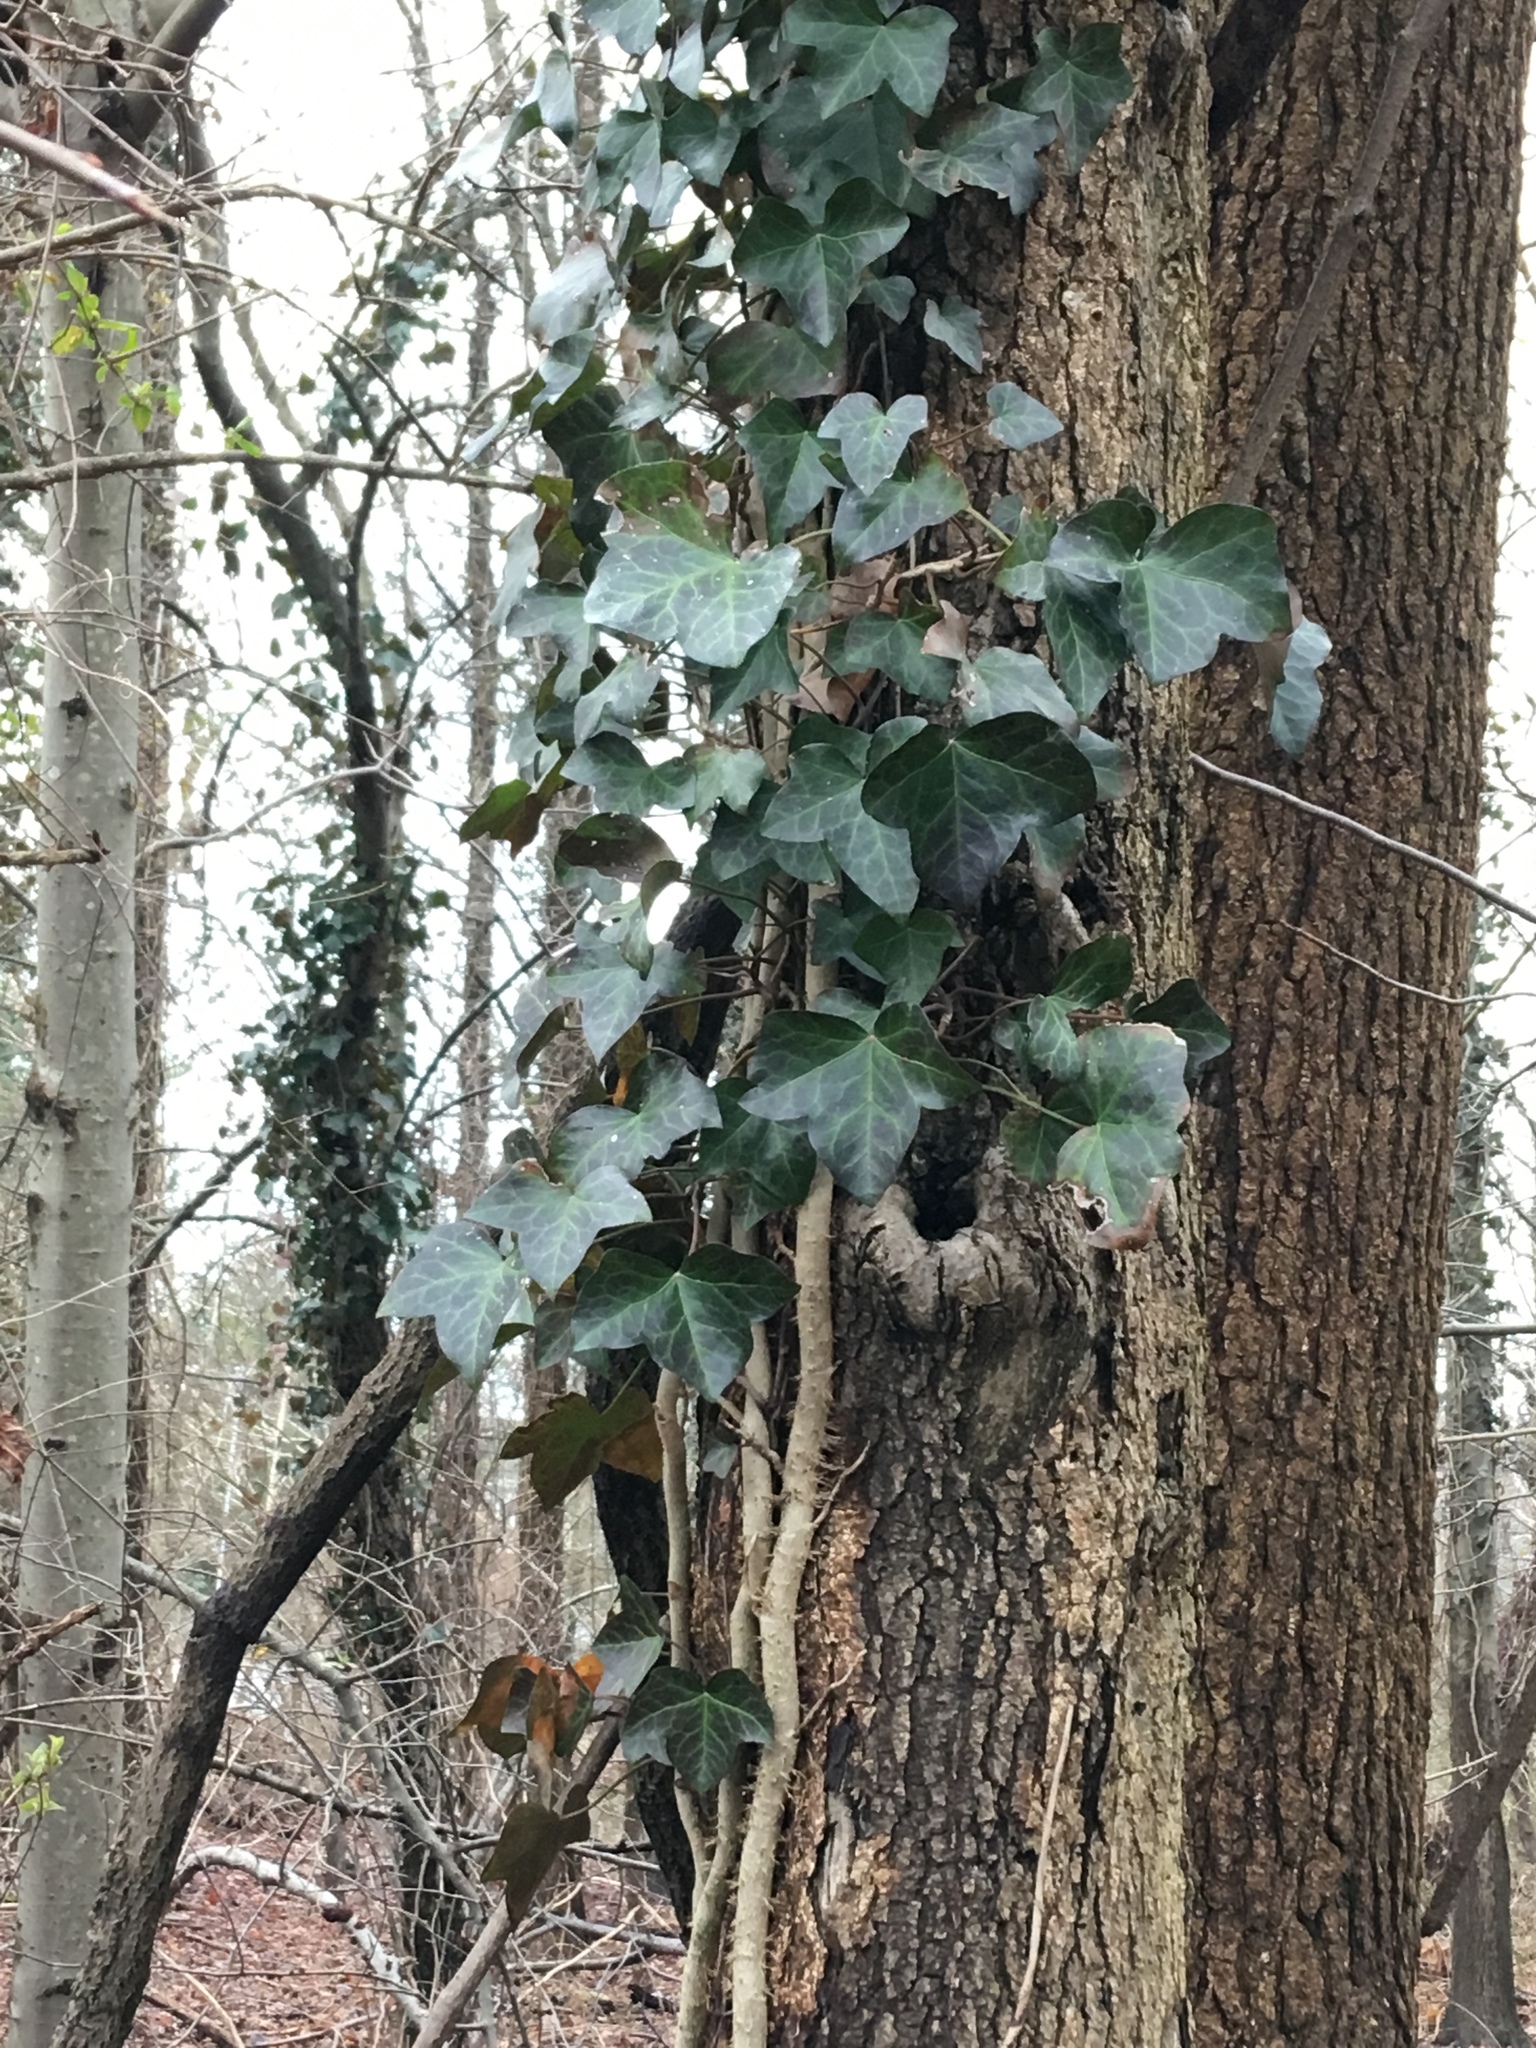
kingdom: Plantae
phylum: Tracheophyta
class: Magnoliopsida
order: Apiales
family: Araliaceae
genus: Hedera
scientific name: Hedera helix
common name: Ivy
